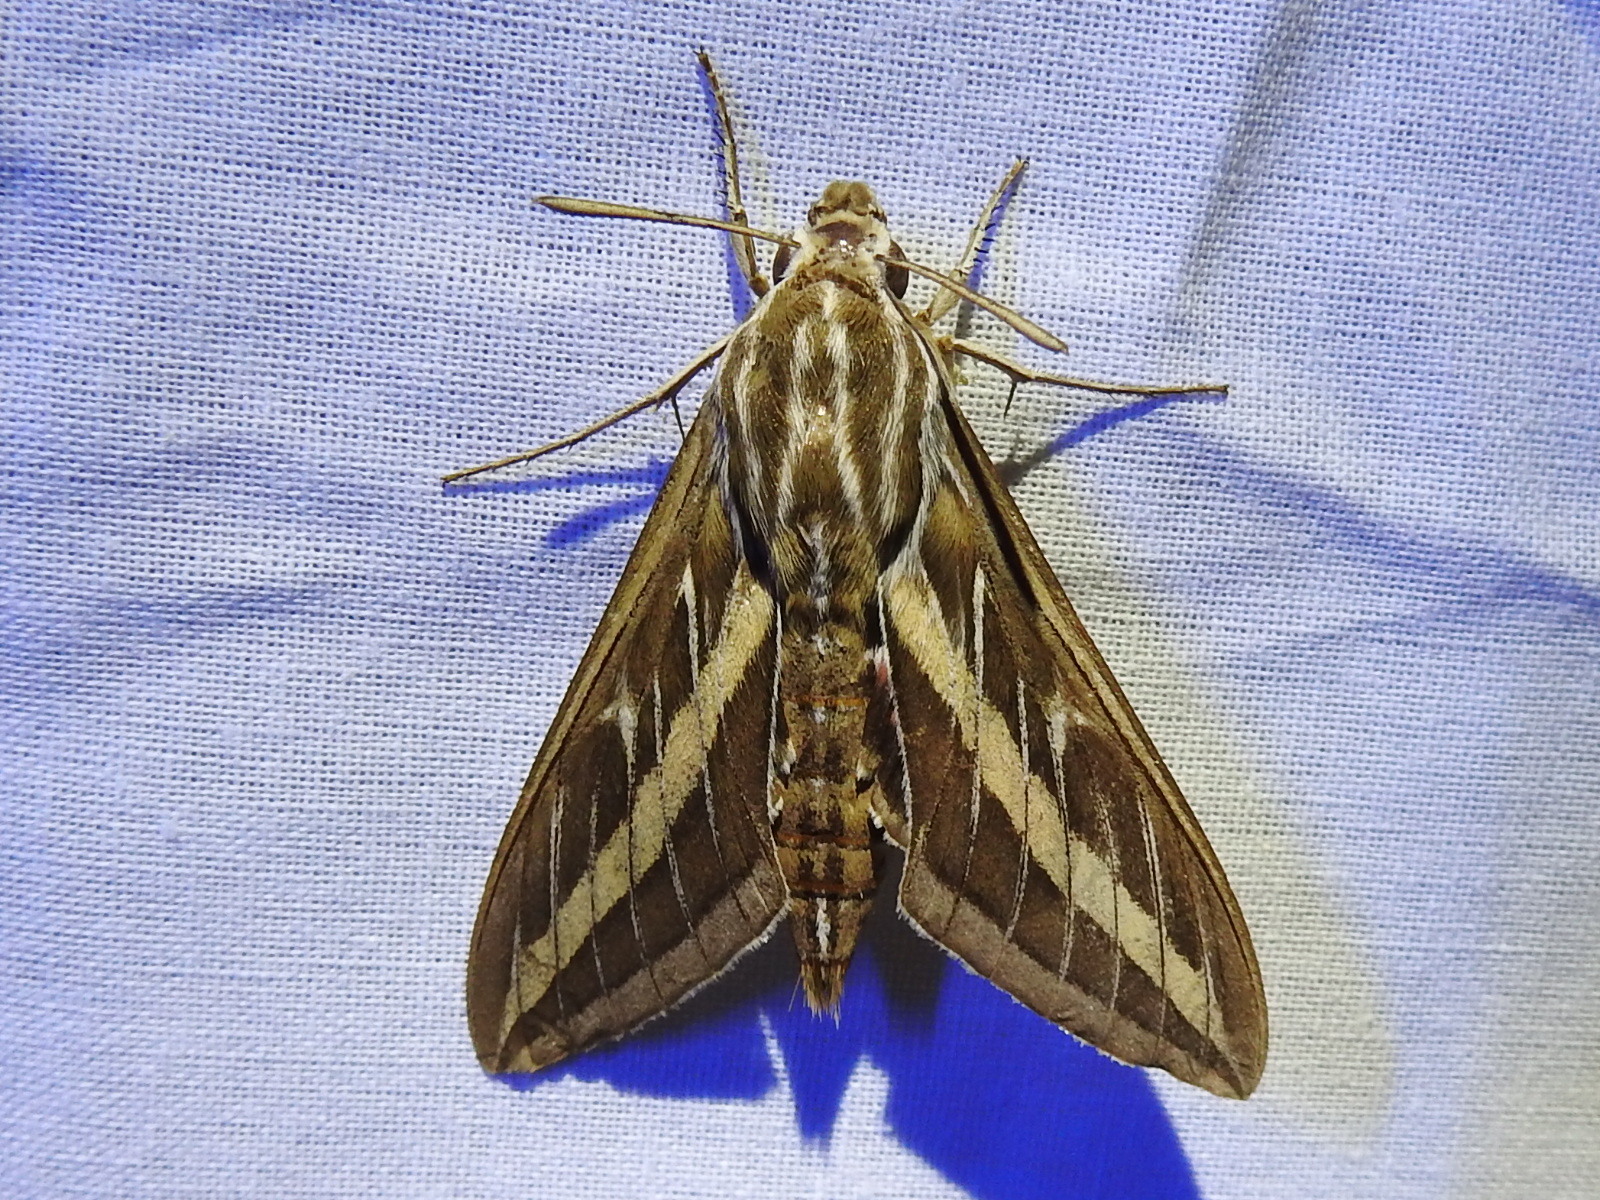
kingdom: Animalia
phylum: Arthropoda
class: Insecta
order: Lepidoptera
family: Sphingidae
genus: Hyles
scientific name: Hyles lineata
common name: White-lined sphinx
